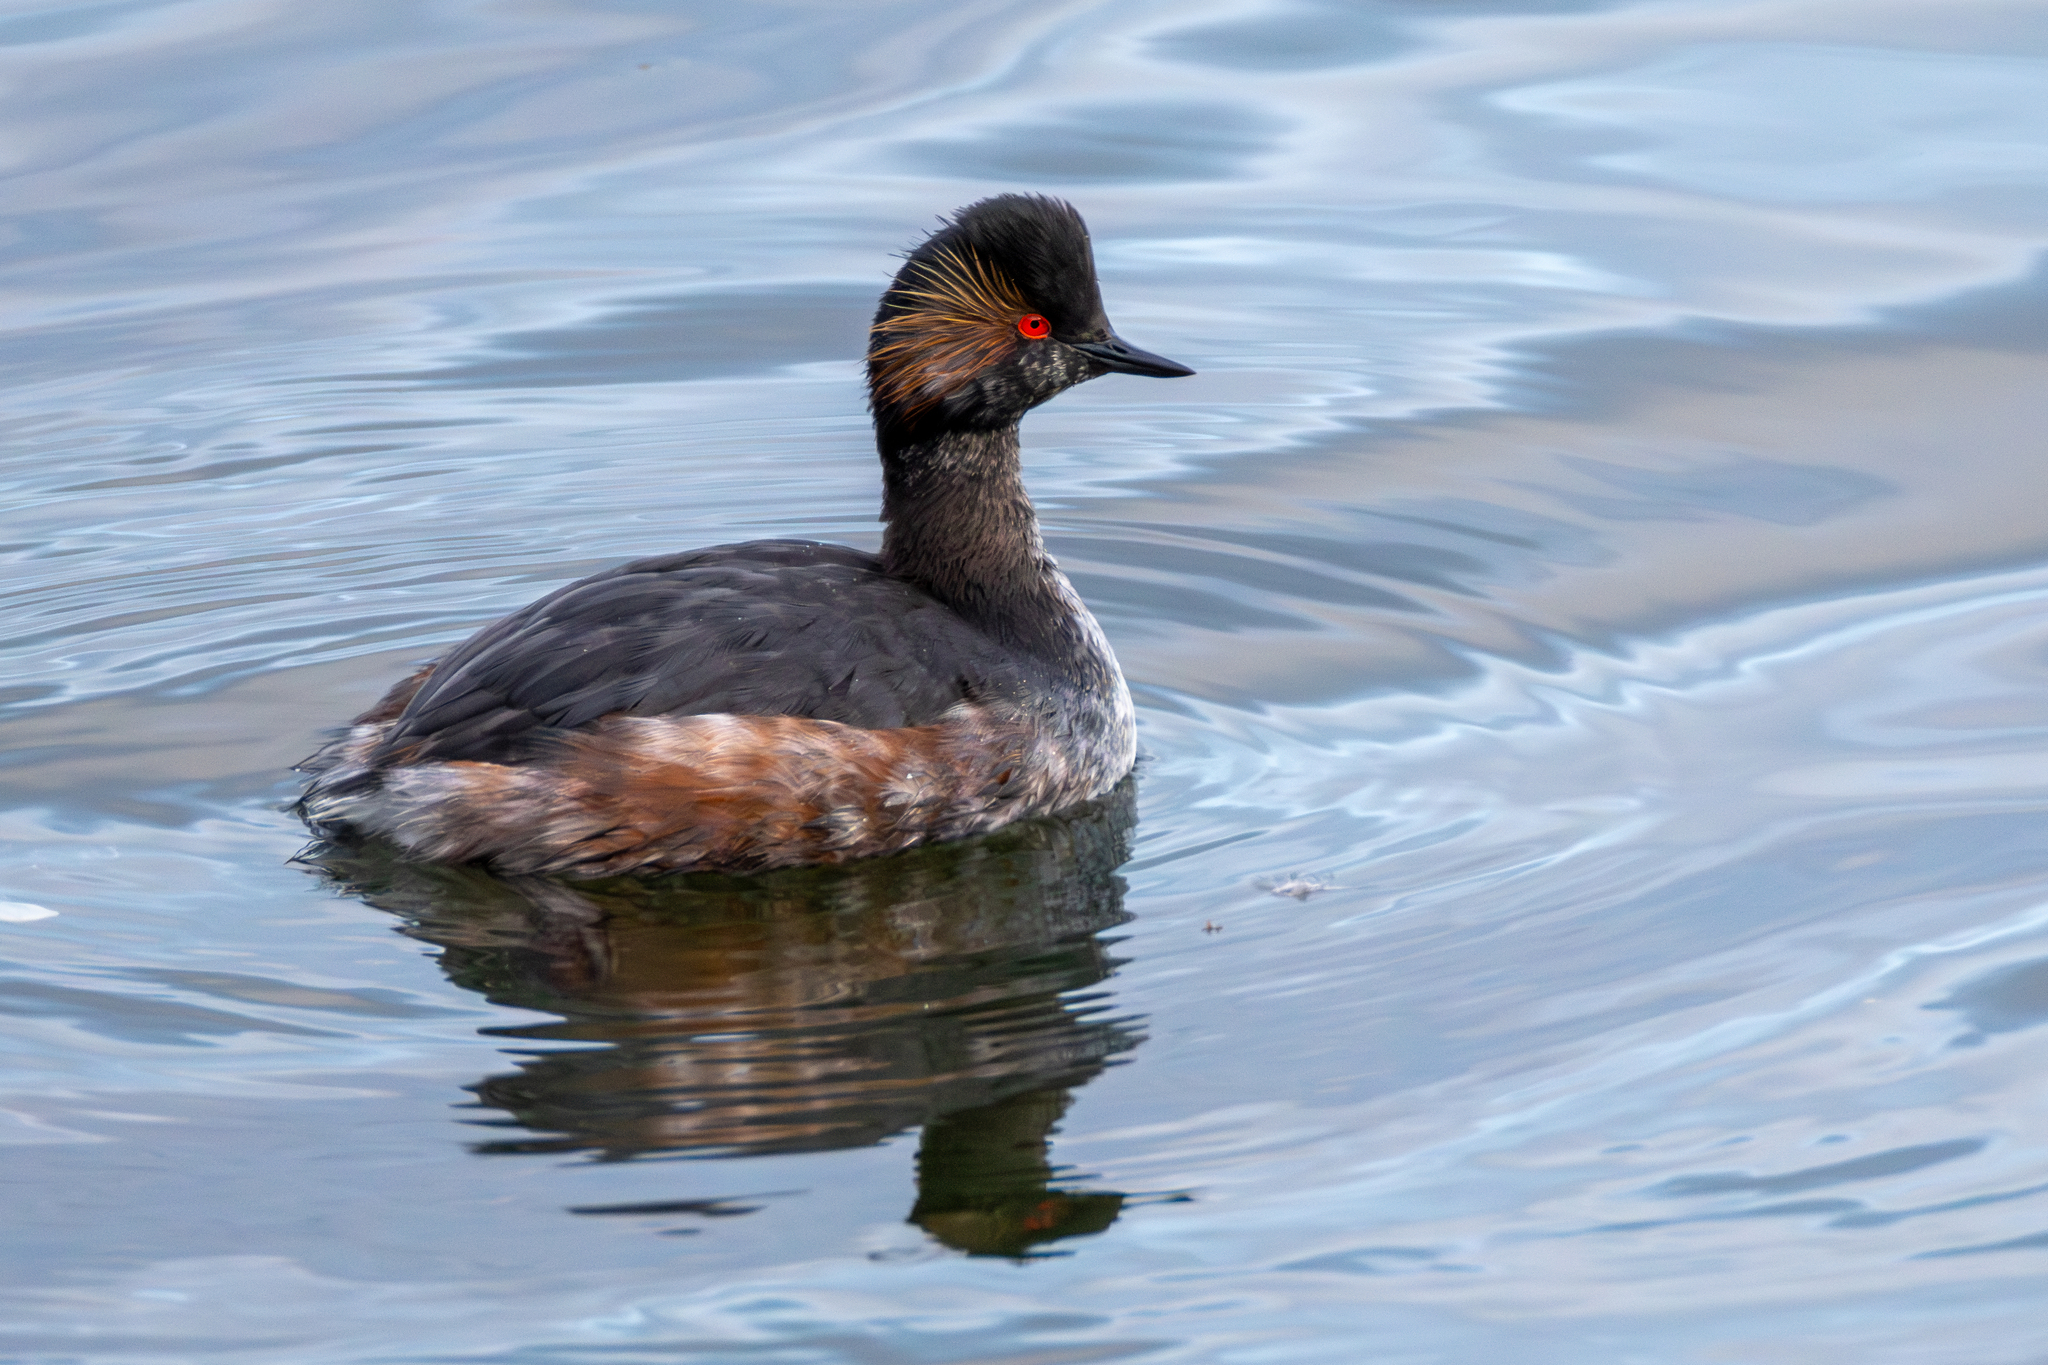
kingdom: Animalia
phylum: Chordata
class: Aves
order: Podicipediformes
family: Podicipedidae
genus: Podiceps
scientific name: Podiceps nigricollis
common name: Black-necked grebe
